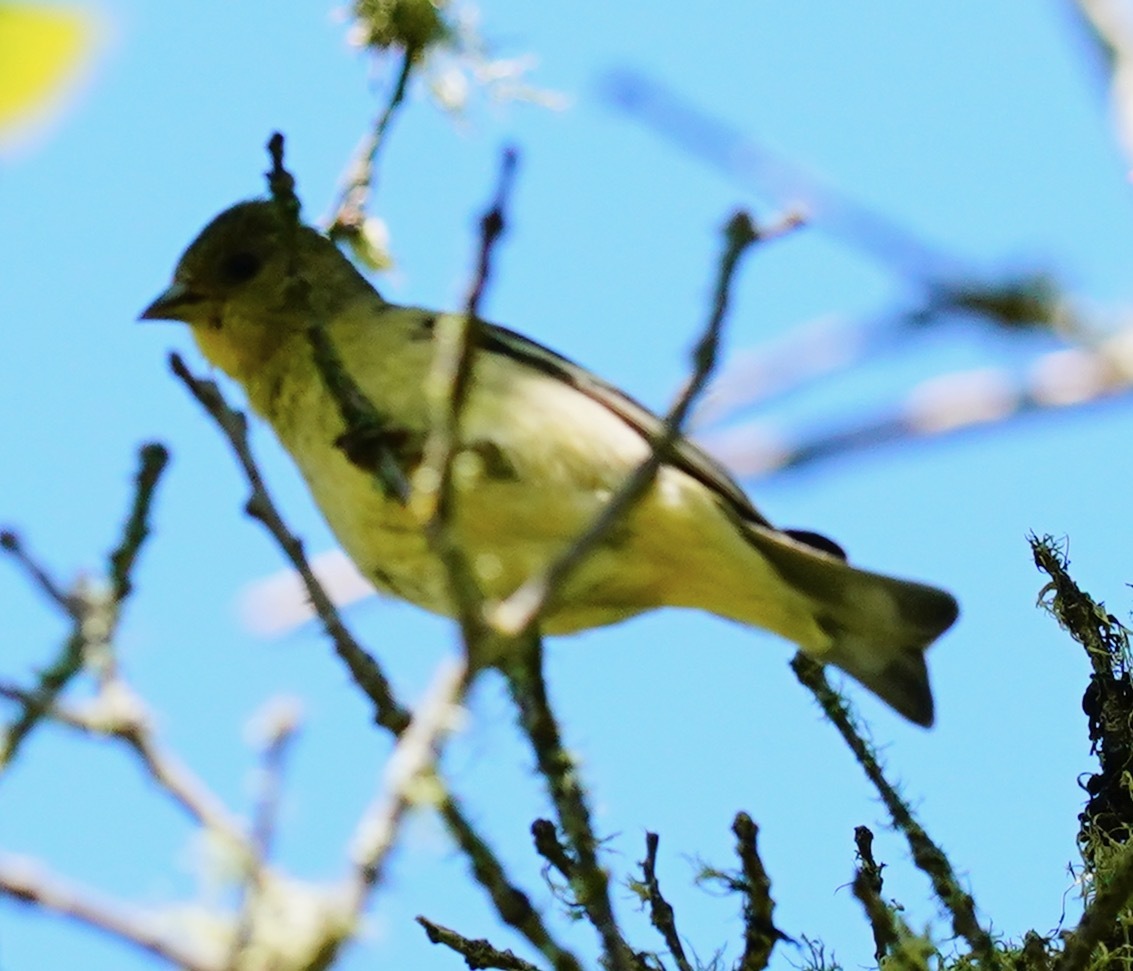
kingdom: Animalia
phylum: Chordata
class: Aves
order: Passeriformes
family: Fringillidae
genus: Spinus
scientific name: Spinus psaltria
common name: Lesser goldfinch
